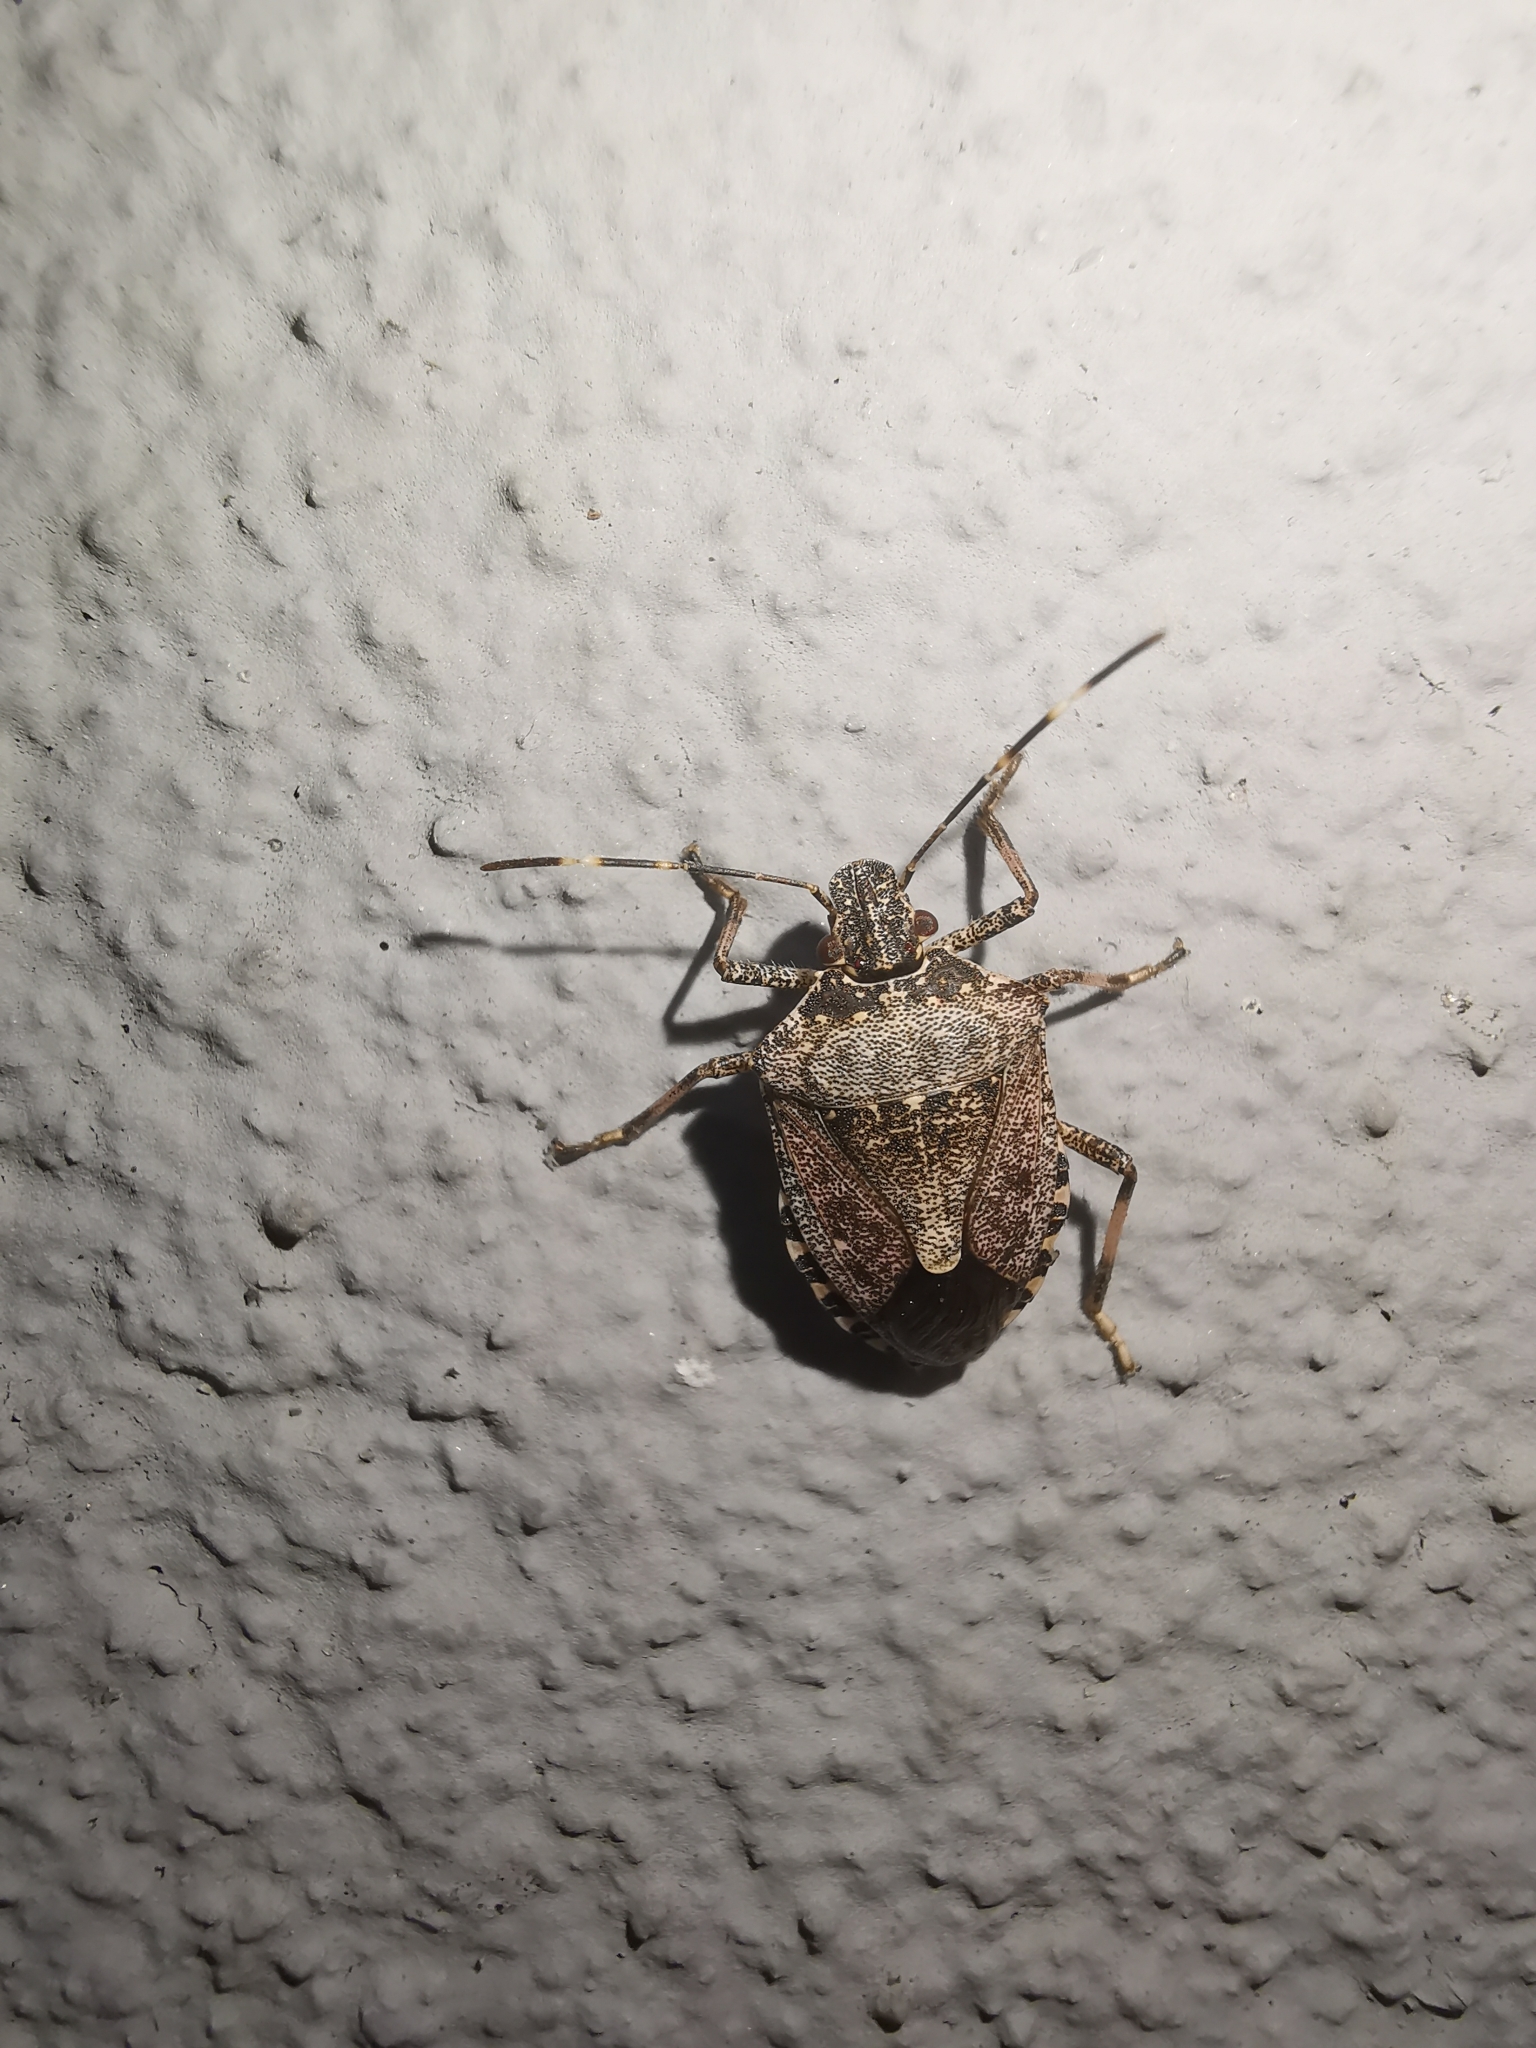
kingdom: Animalia
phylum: Arthropoda
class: Insecta
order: Hemiptera
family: Pentatomidae
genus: Halyomorpha
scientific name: Halyomorpha halys
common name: Brown marmorated stink bug
